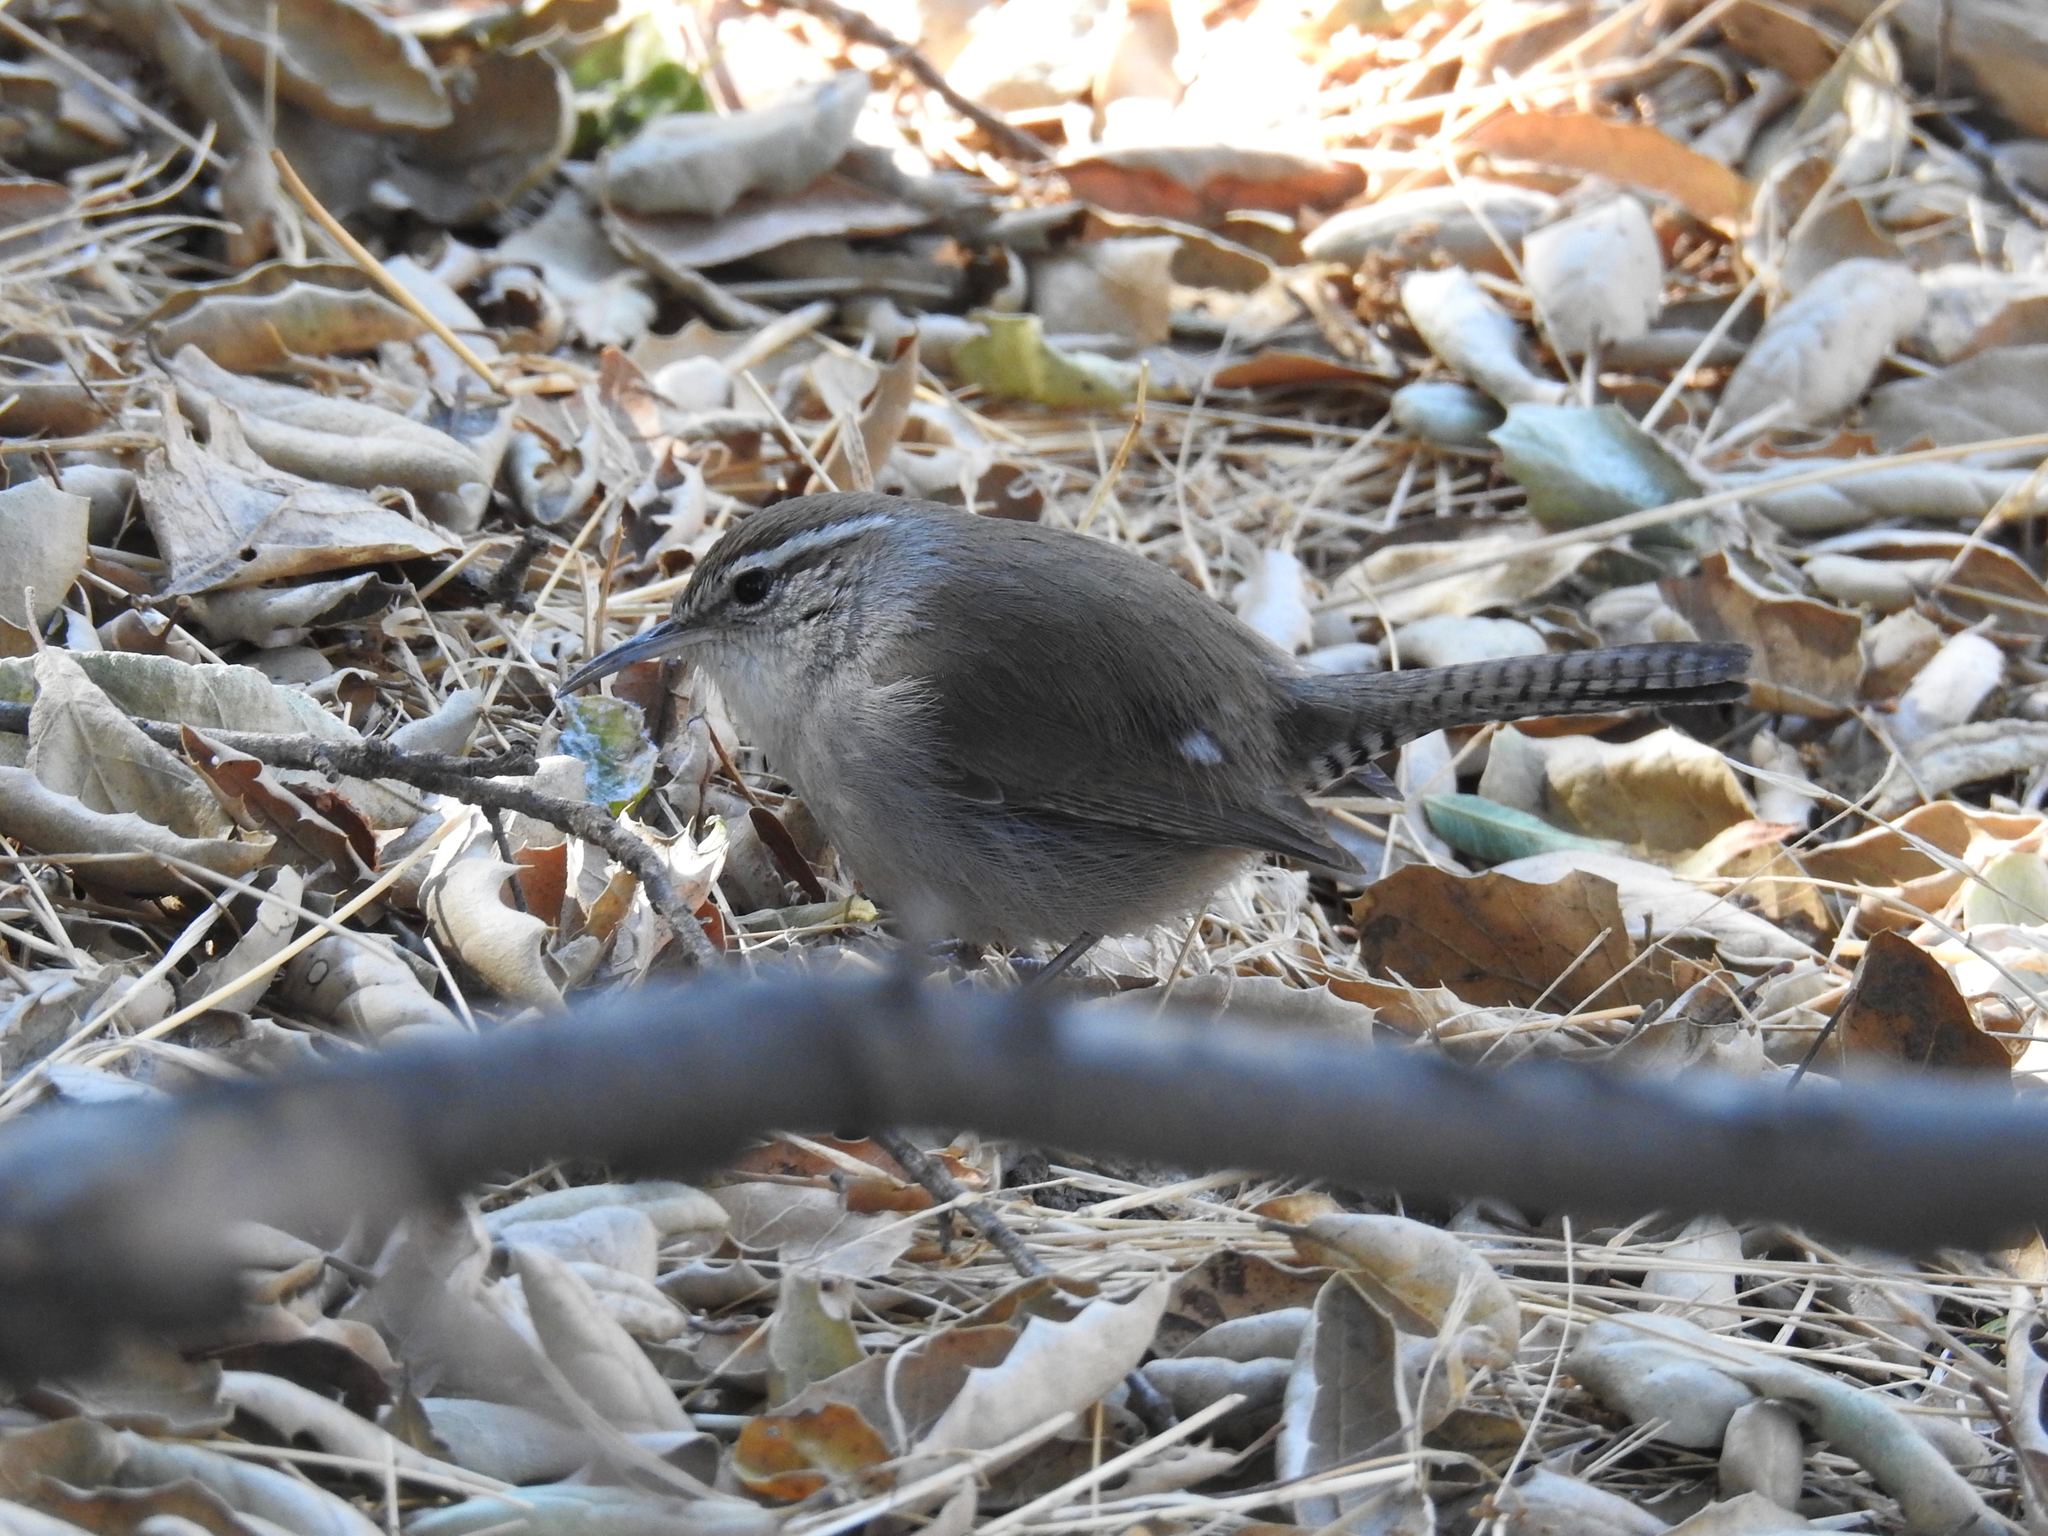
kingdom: Animalia
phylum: Chordata
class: Aves
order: Passeriformes
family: Troglodytidae
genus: Thryomanes
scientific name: Thryomanes bewickii
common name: Bewick's wren
